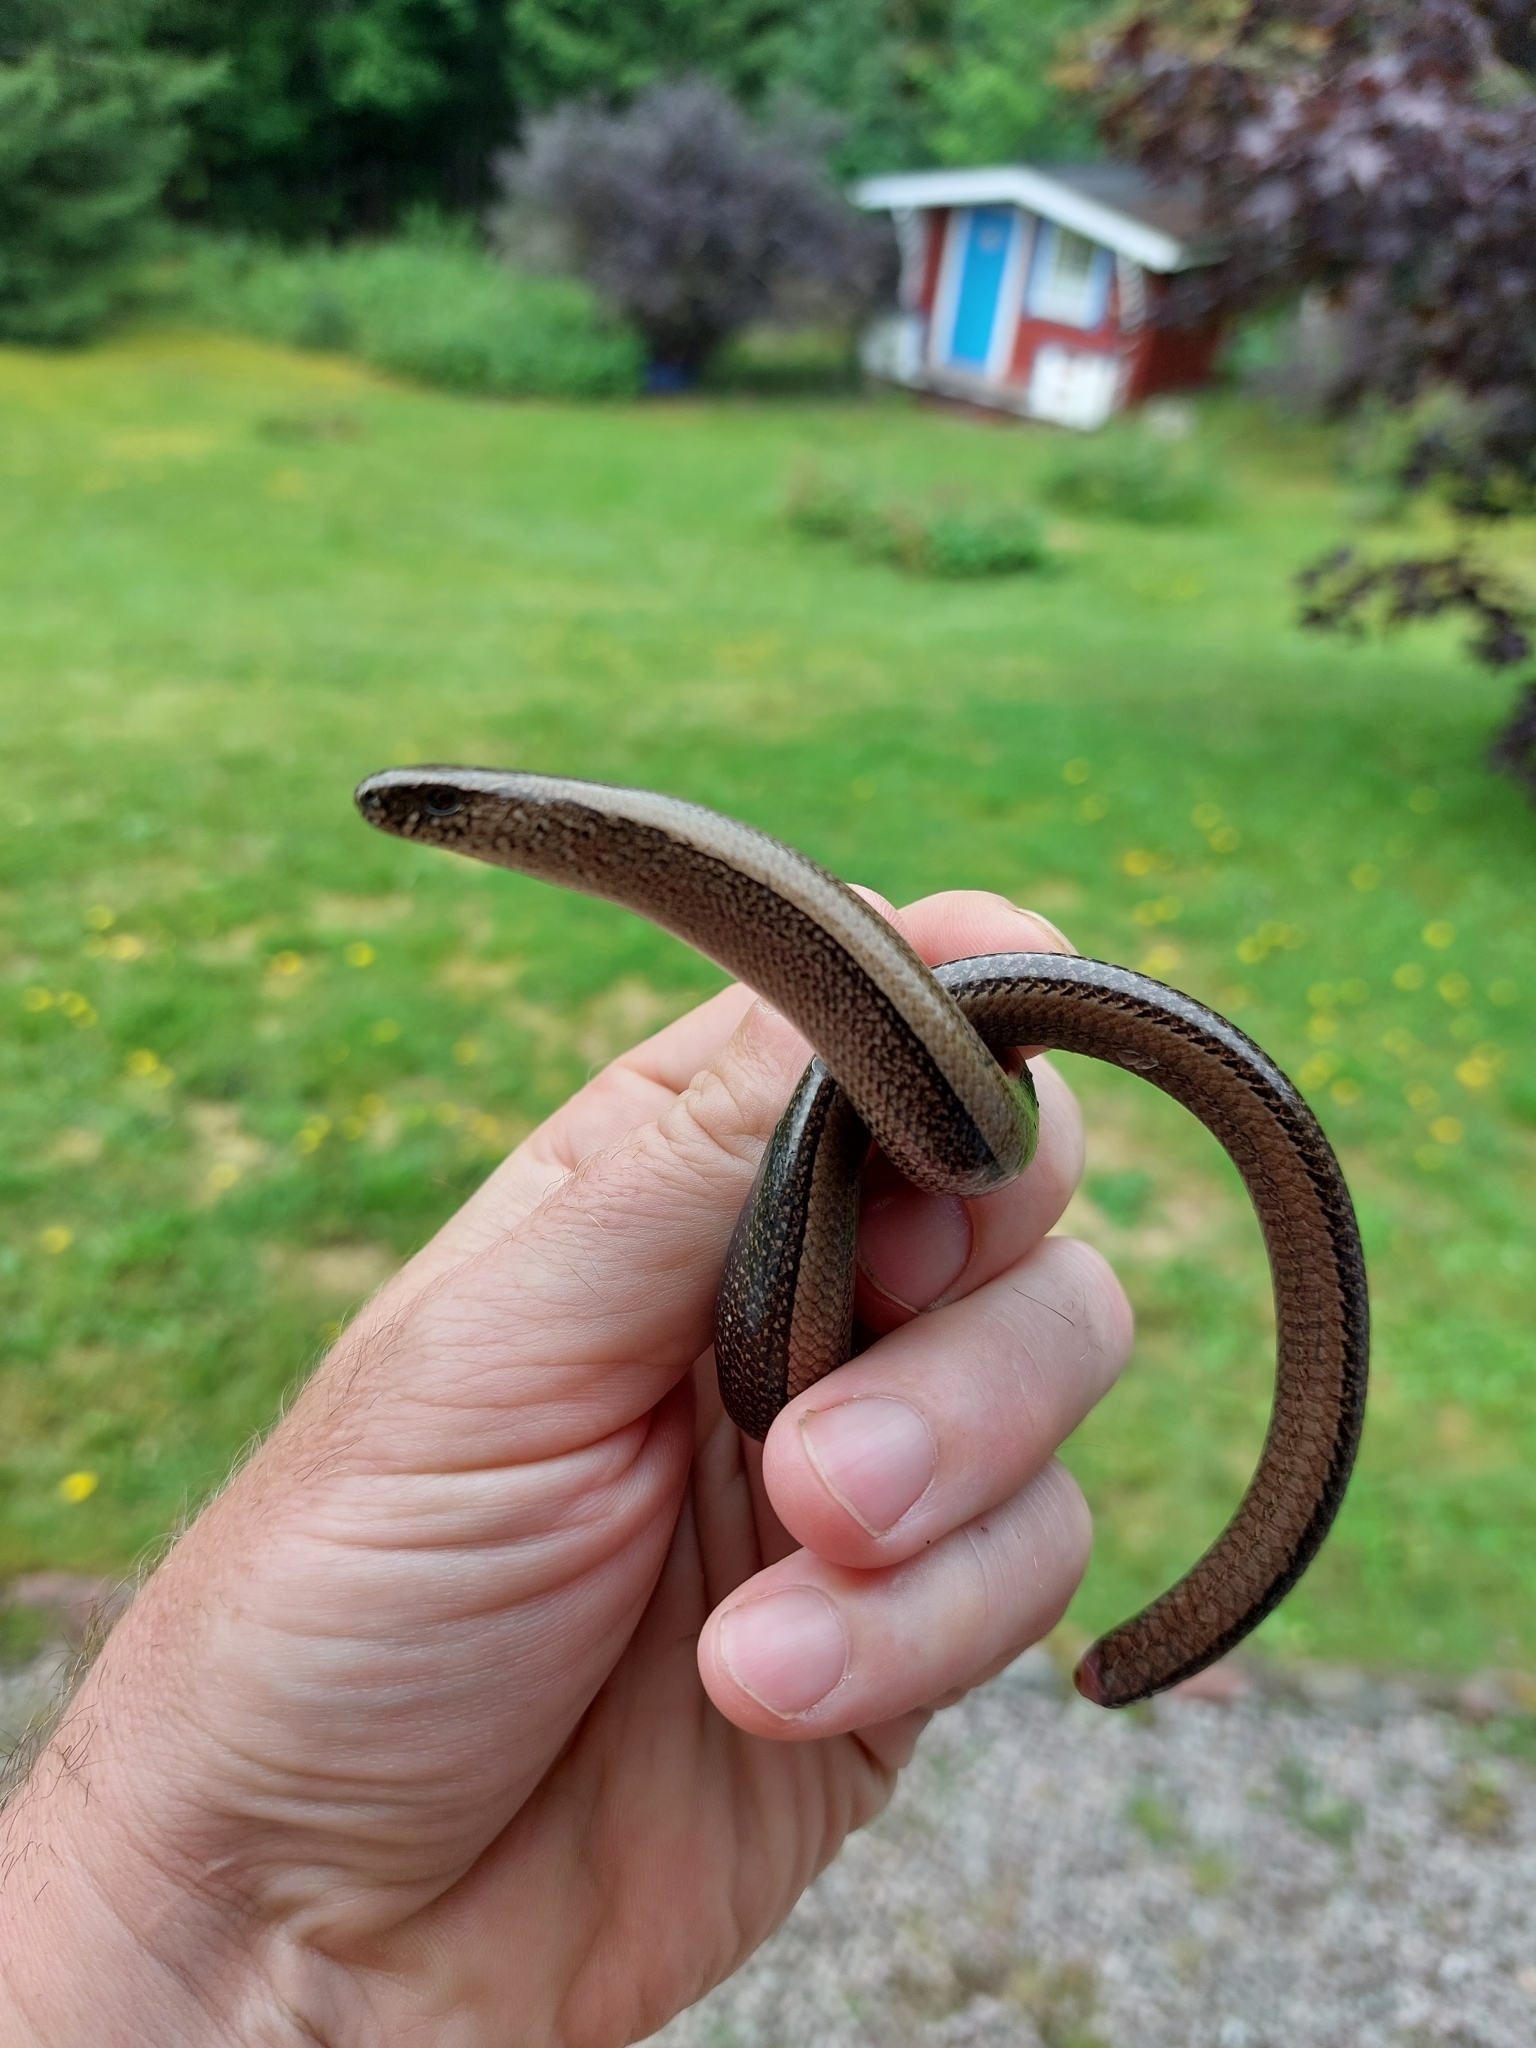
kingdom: Animalia
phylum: Chordata
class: Squamata
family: Anguidae
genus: Anguis
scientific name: Anguis fragilis
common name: Slow worm
